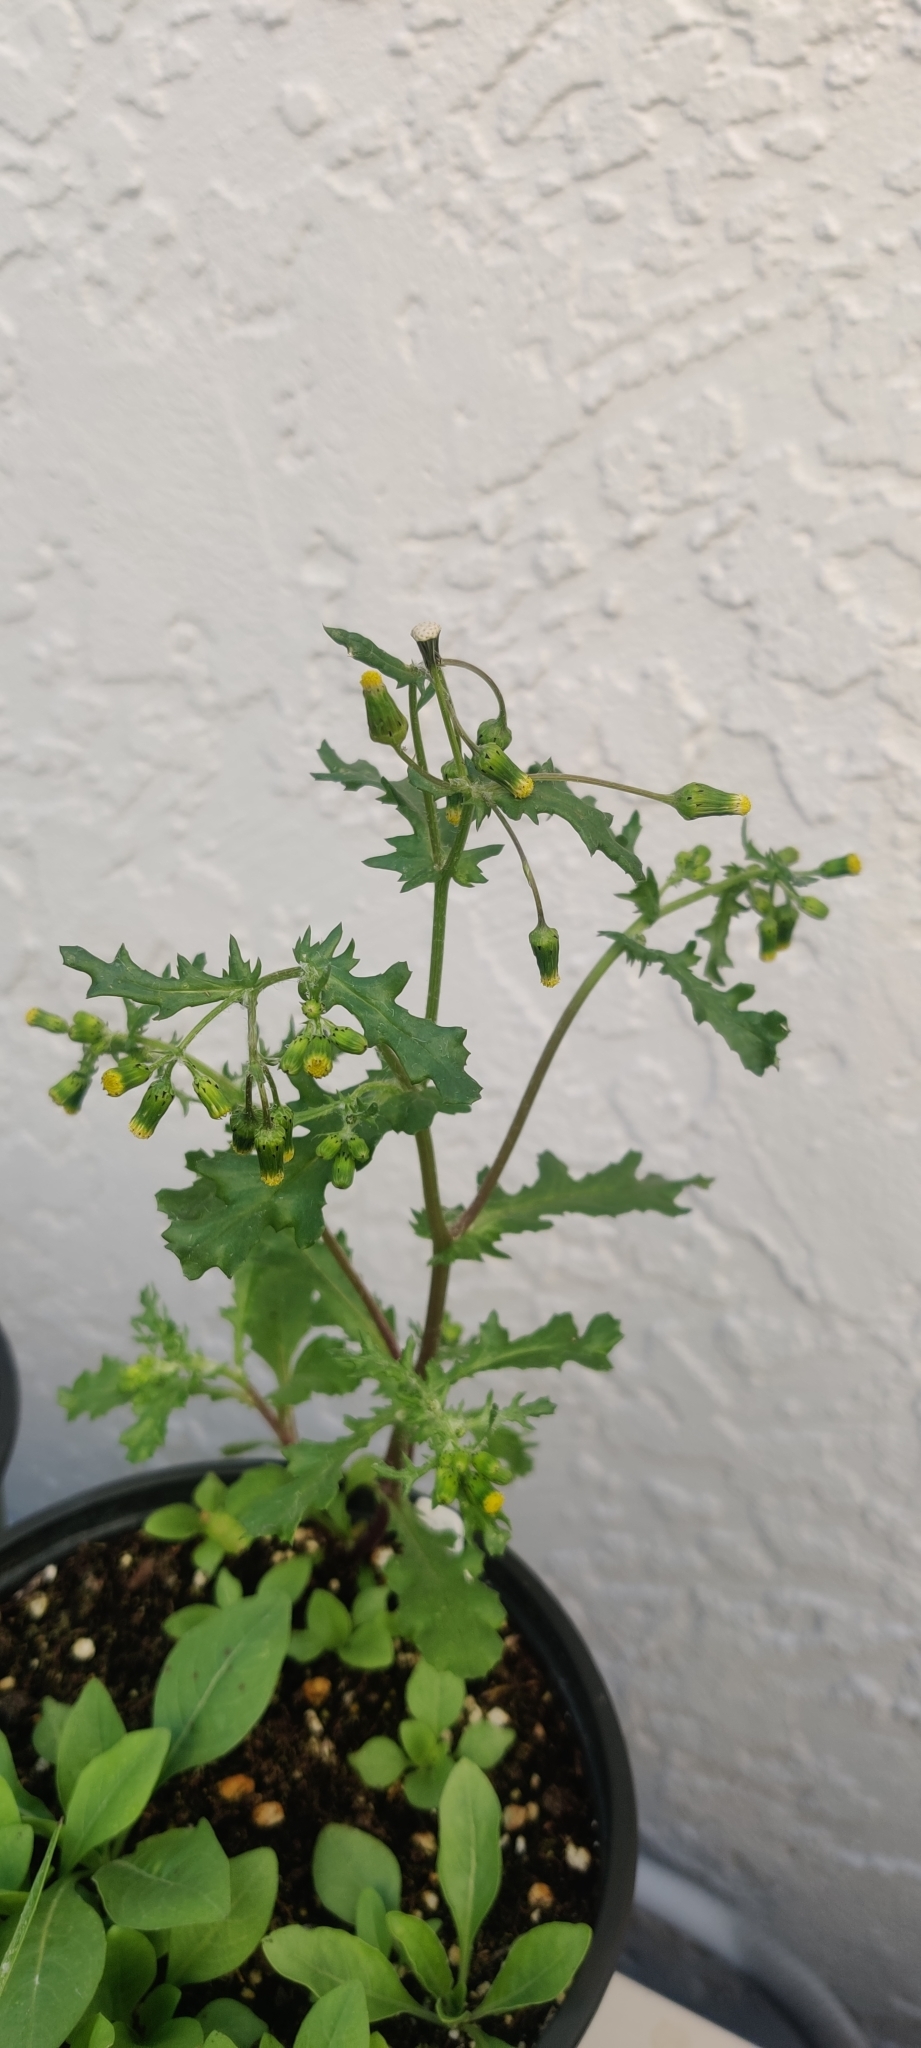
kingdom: Plantae
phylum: Tracheophyta
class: Magnoliopsida
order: Asterales
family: Asteraceae
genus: Senecio
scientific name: Senecio vulgaris
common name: Old-man-in-the-spring
